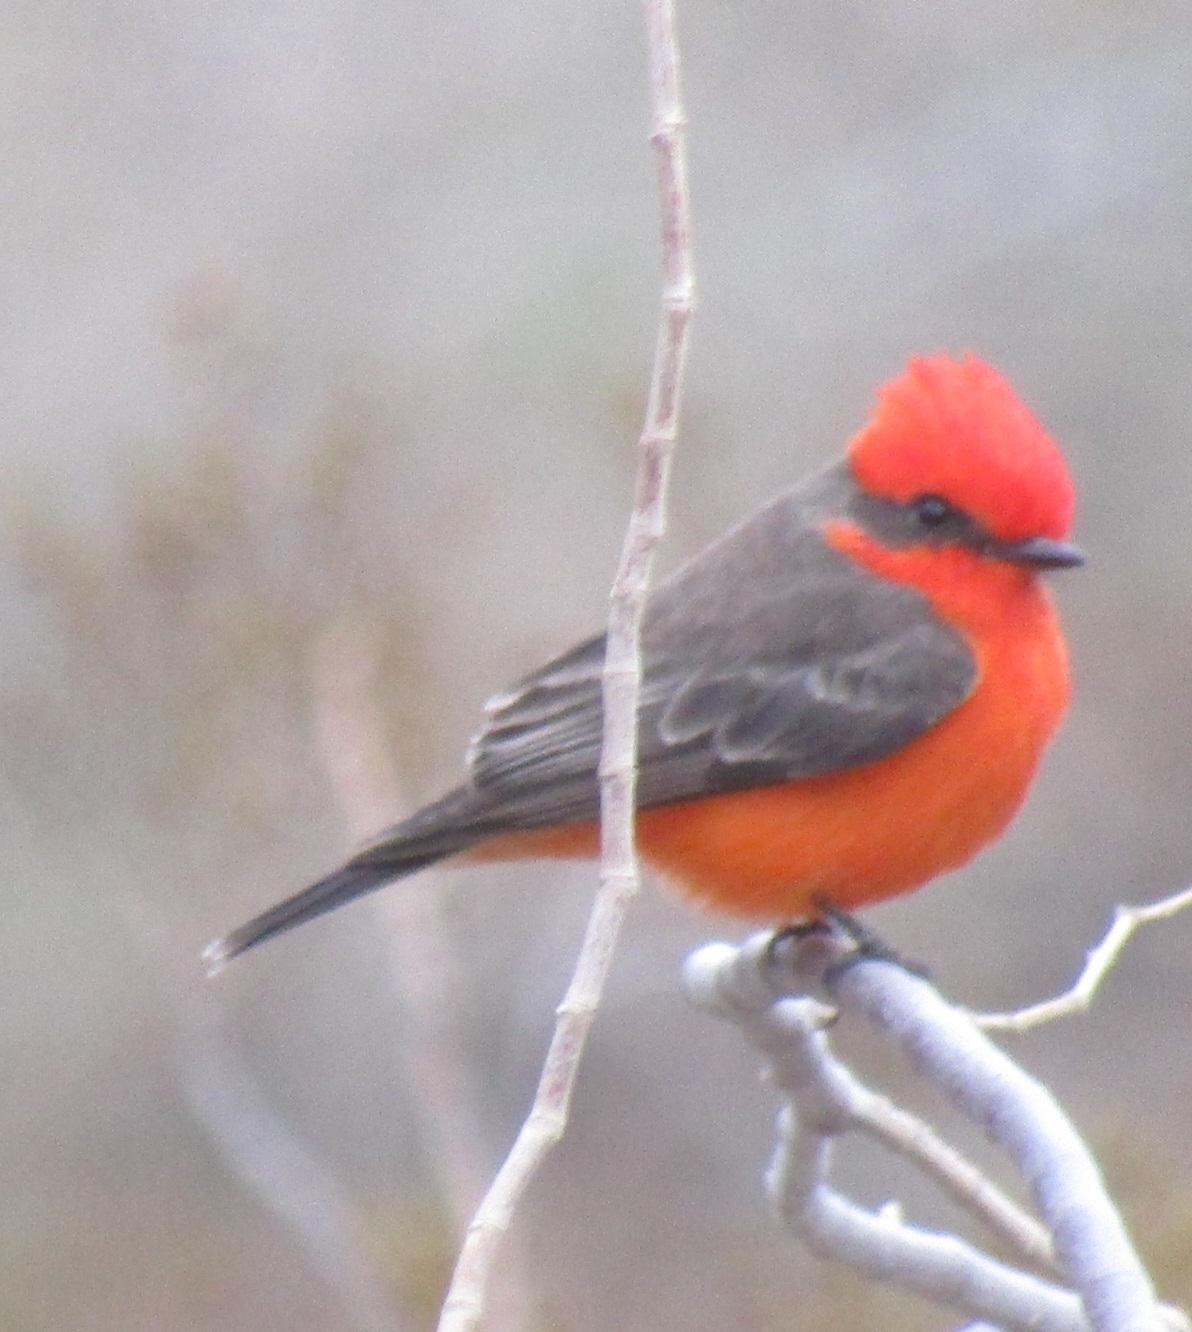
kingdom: Animalia
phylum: Chordata
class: Aves
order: Passeriformes
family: Tyrannidae
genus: Pyrocephalus
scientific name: Pyrocephalus rubinus
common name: Vermilion flycatcher
